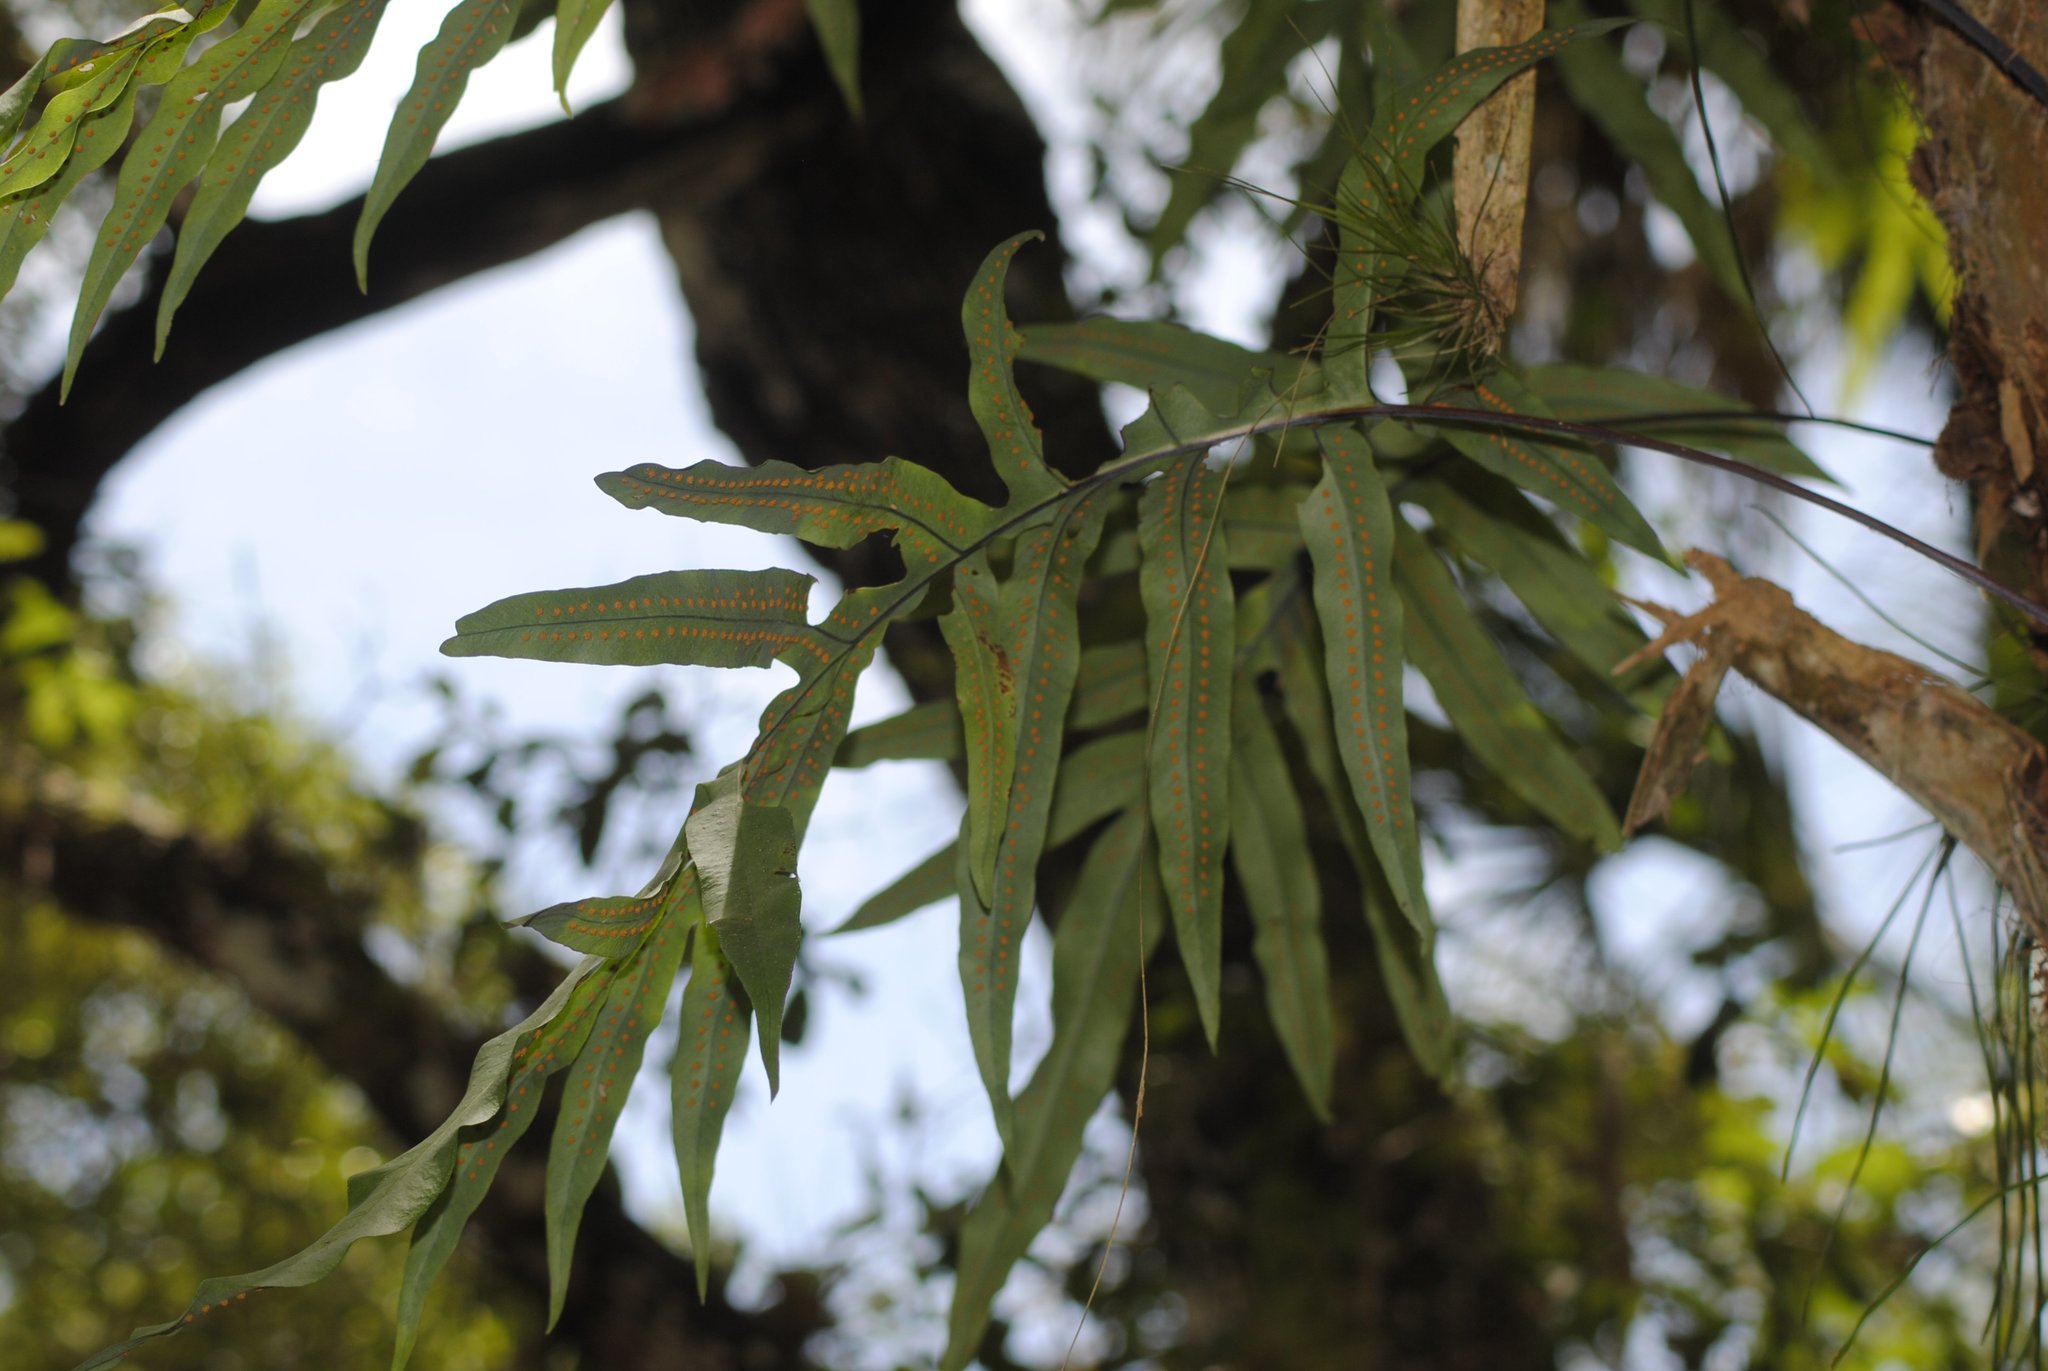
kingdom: Plantae
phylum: Tracheophyta
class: Polypodiopsida
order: Polypodiales
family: Polypodiaceae
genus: Phlebodium
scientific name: Phlebodium aureum
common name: Gold-foot fern
